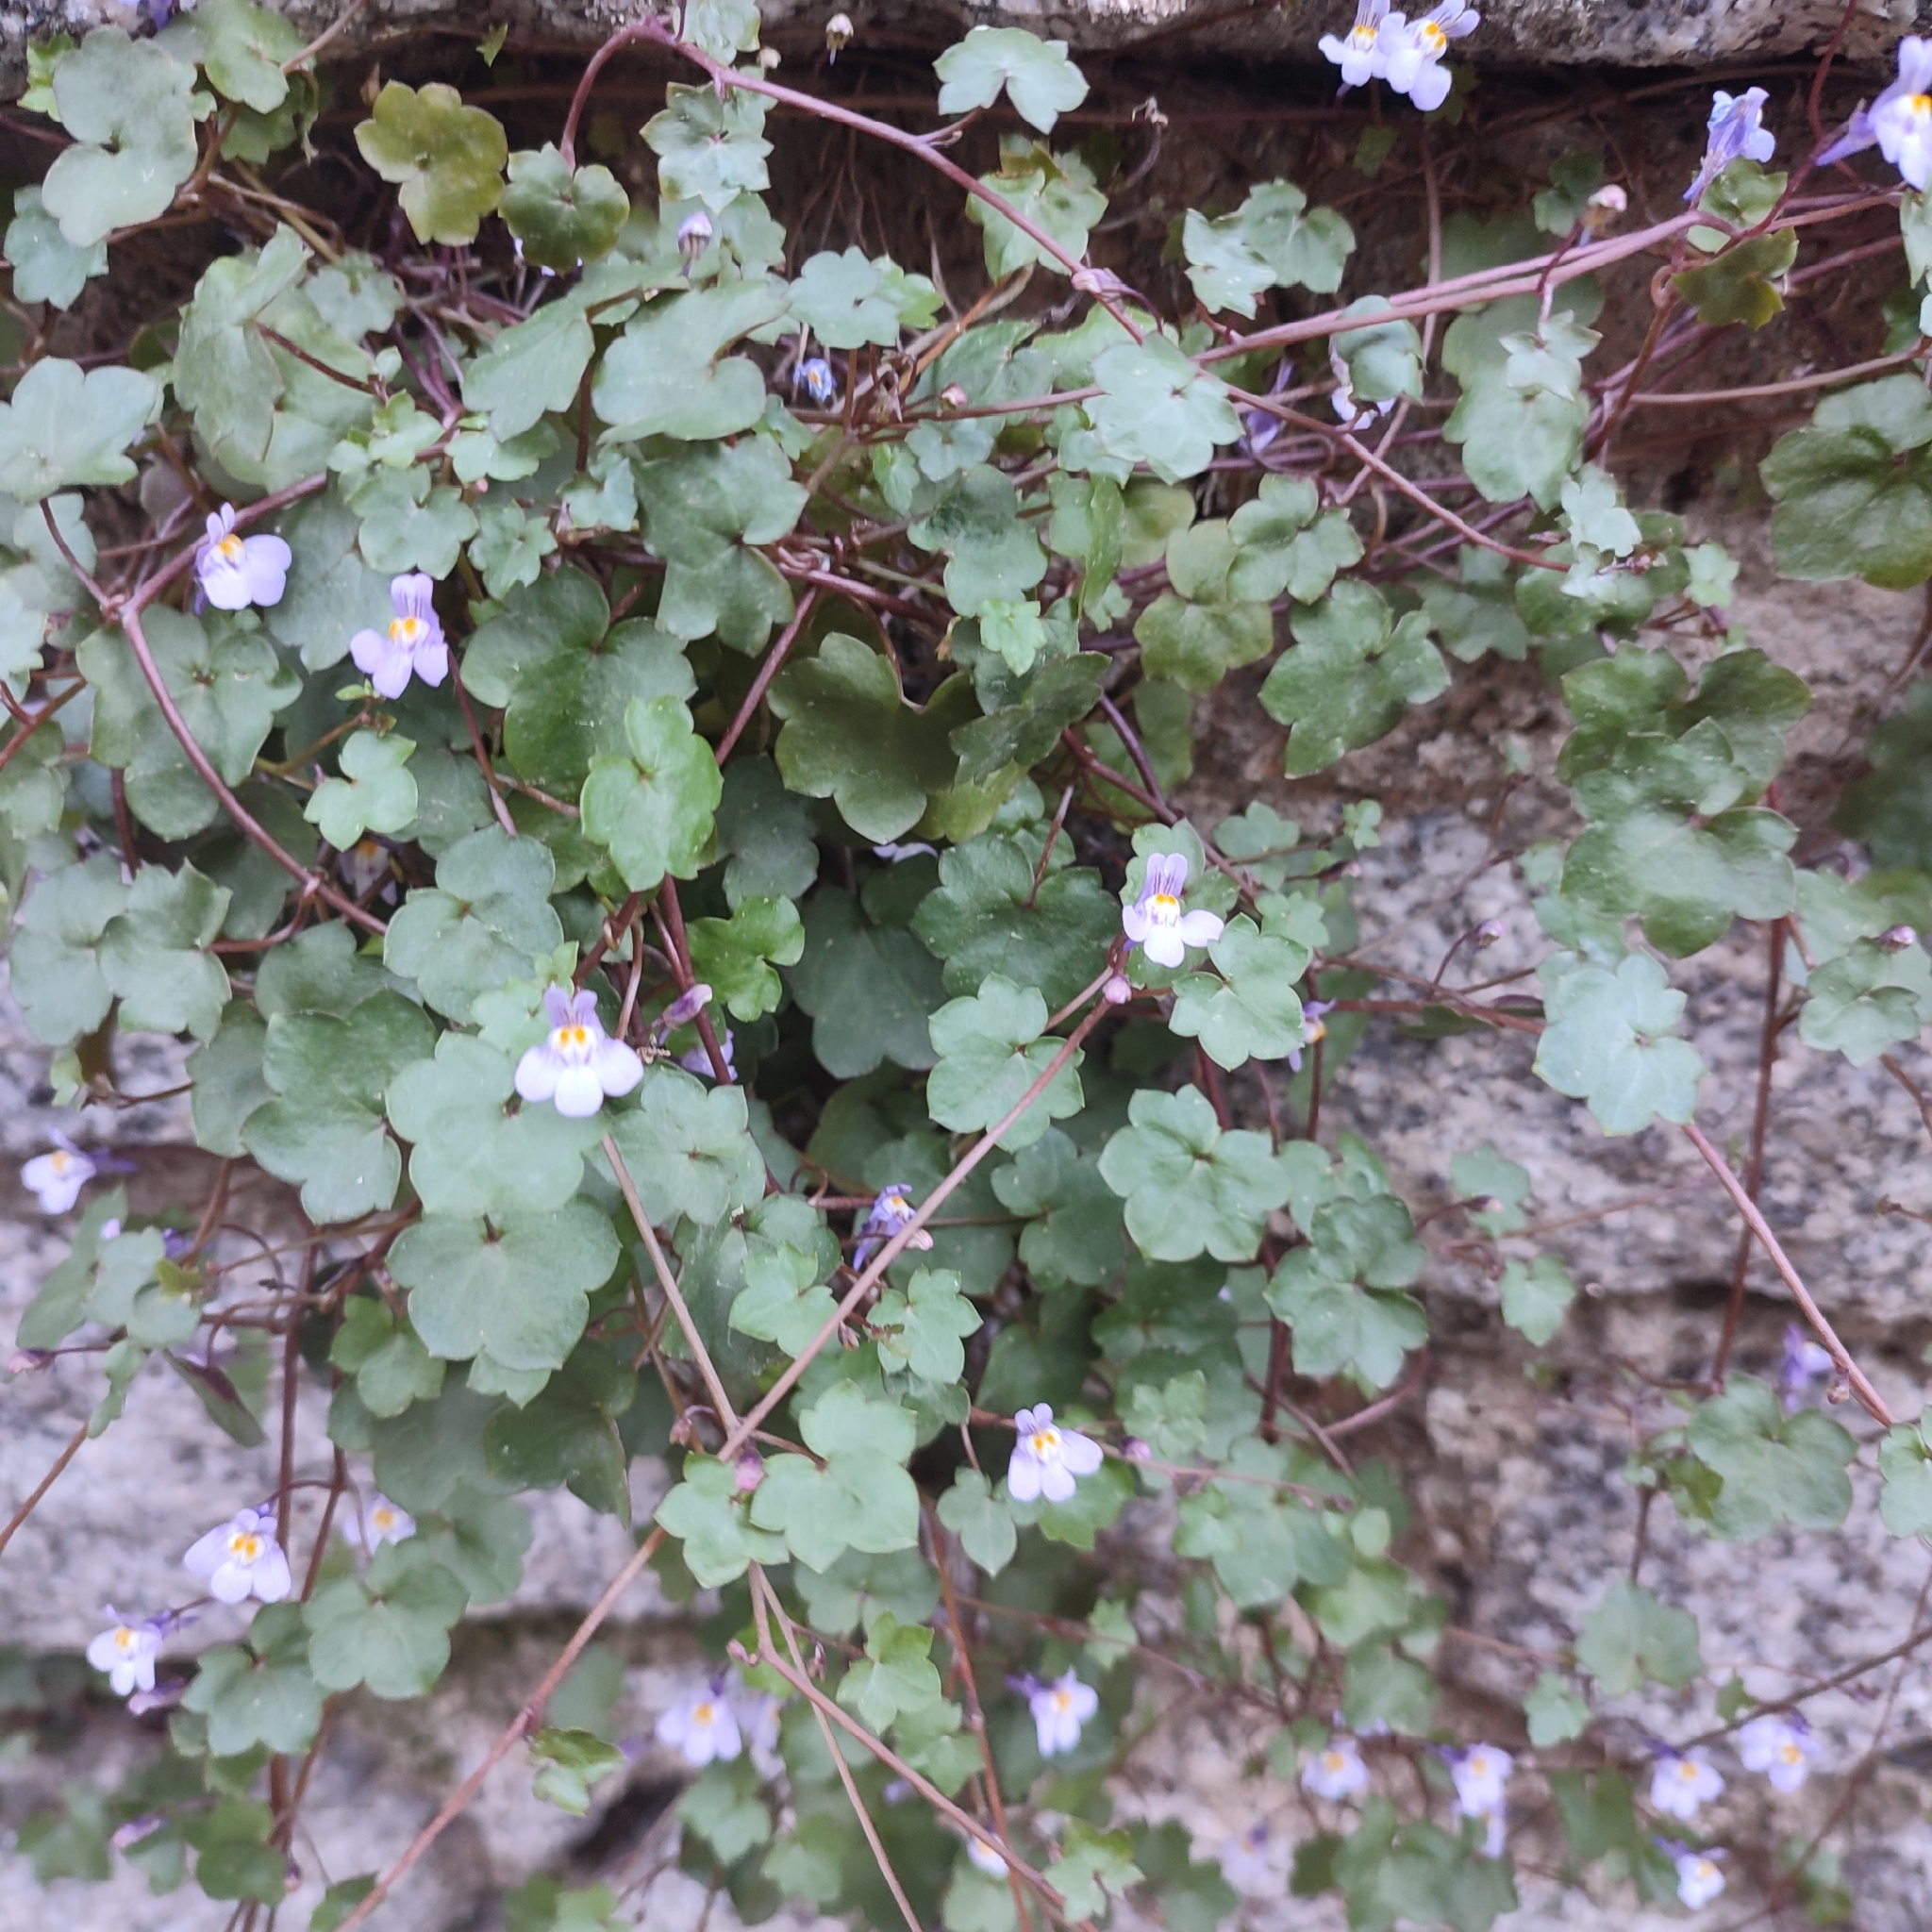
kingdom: Plantae
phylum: Tracheophyta
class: Magnoliopsida
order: Lamiales
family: Plantaginaceae
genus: Cymbalaria
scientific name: Cymbalaria muralis
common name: Ivy-leaved toadflax
